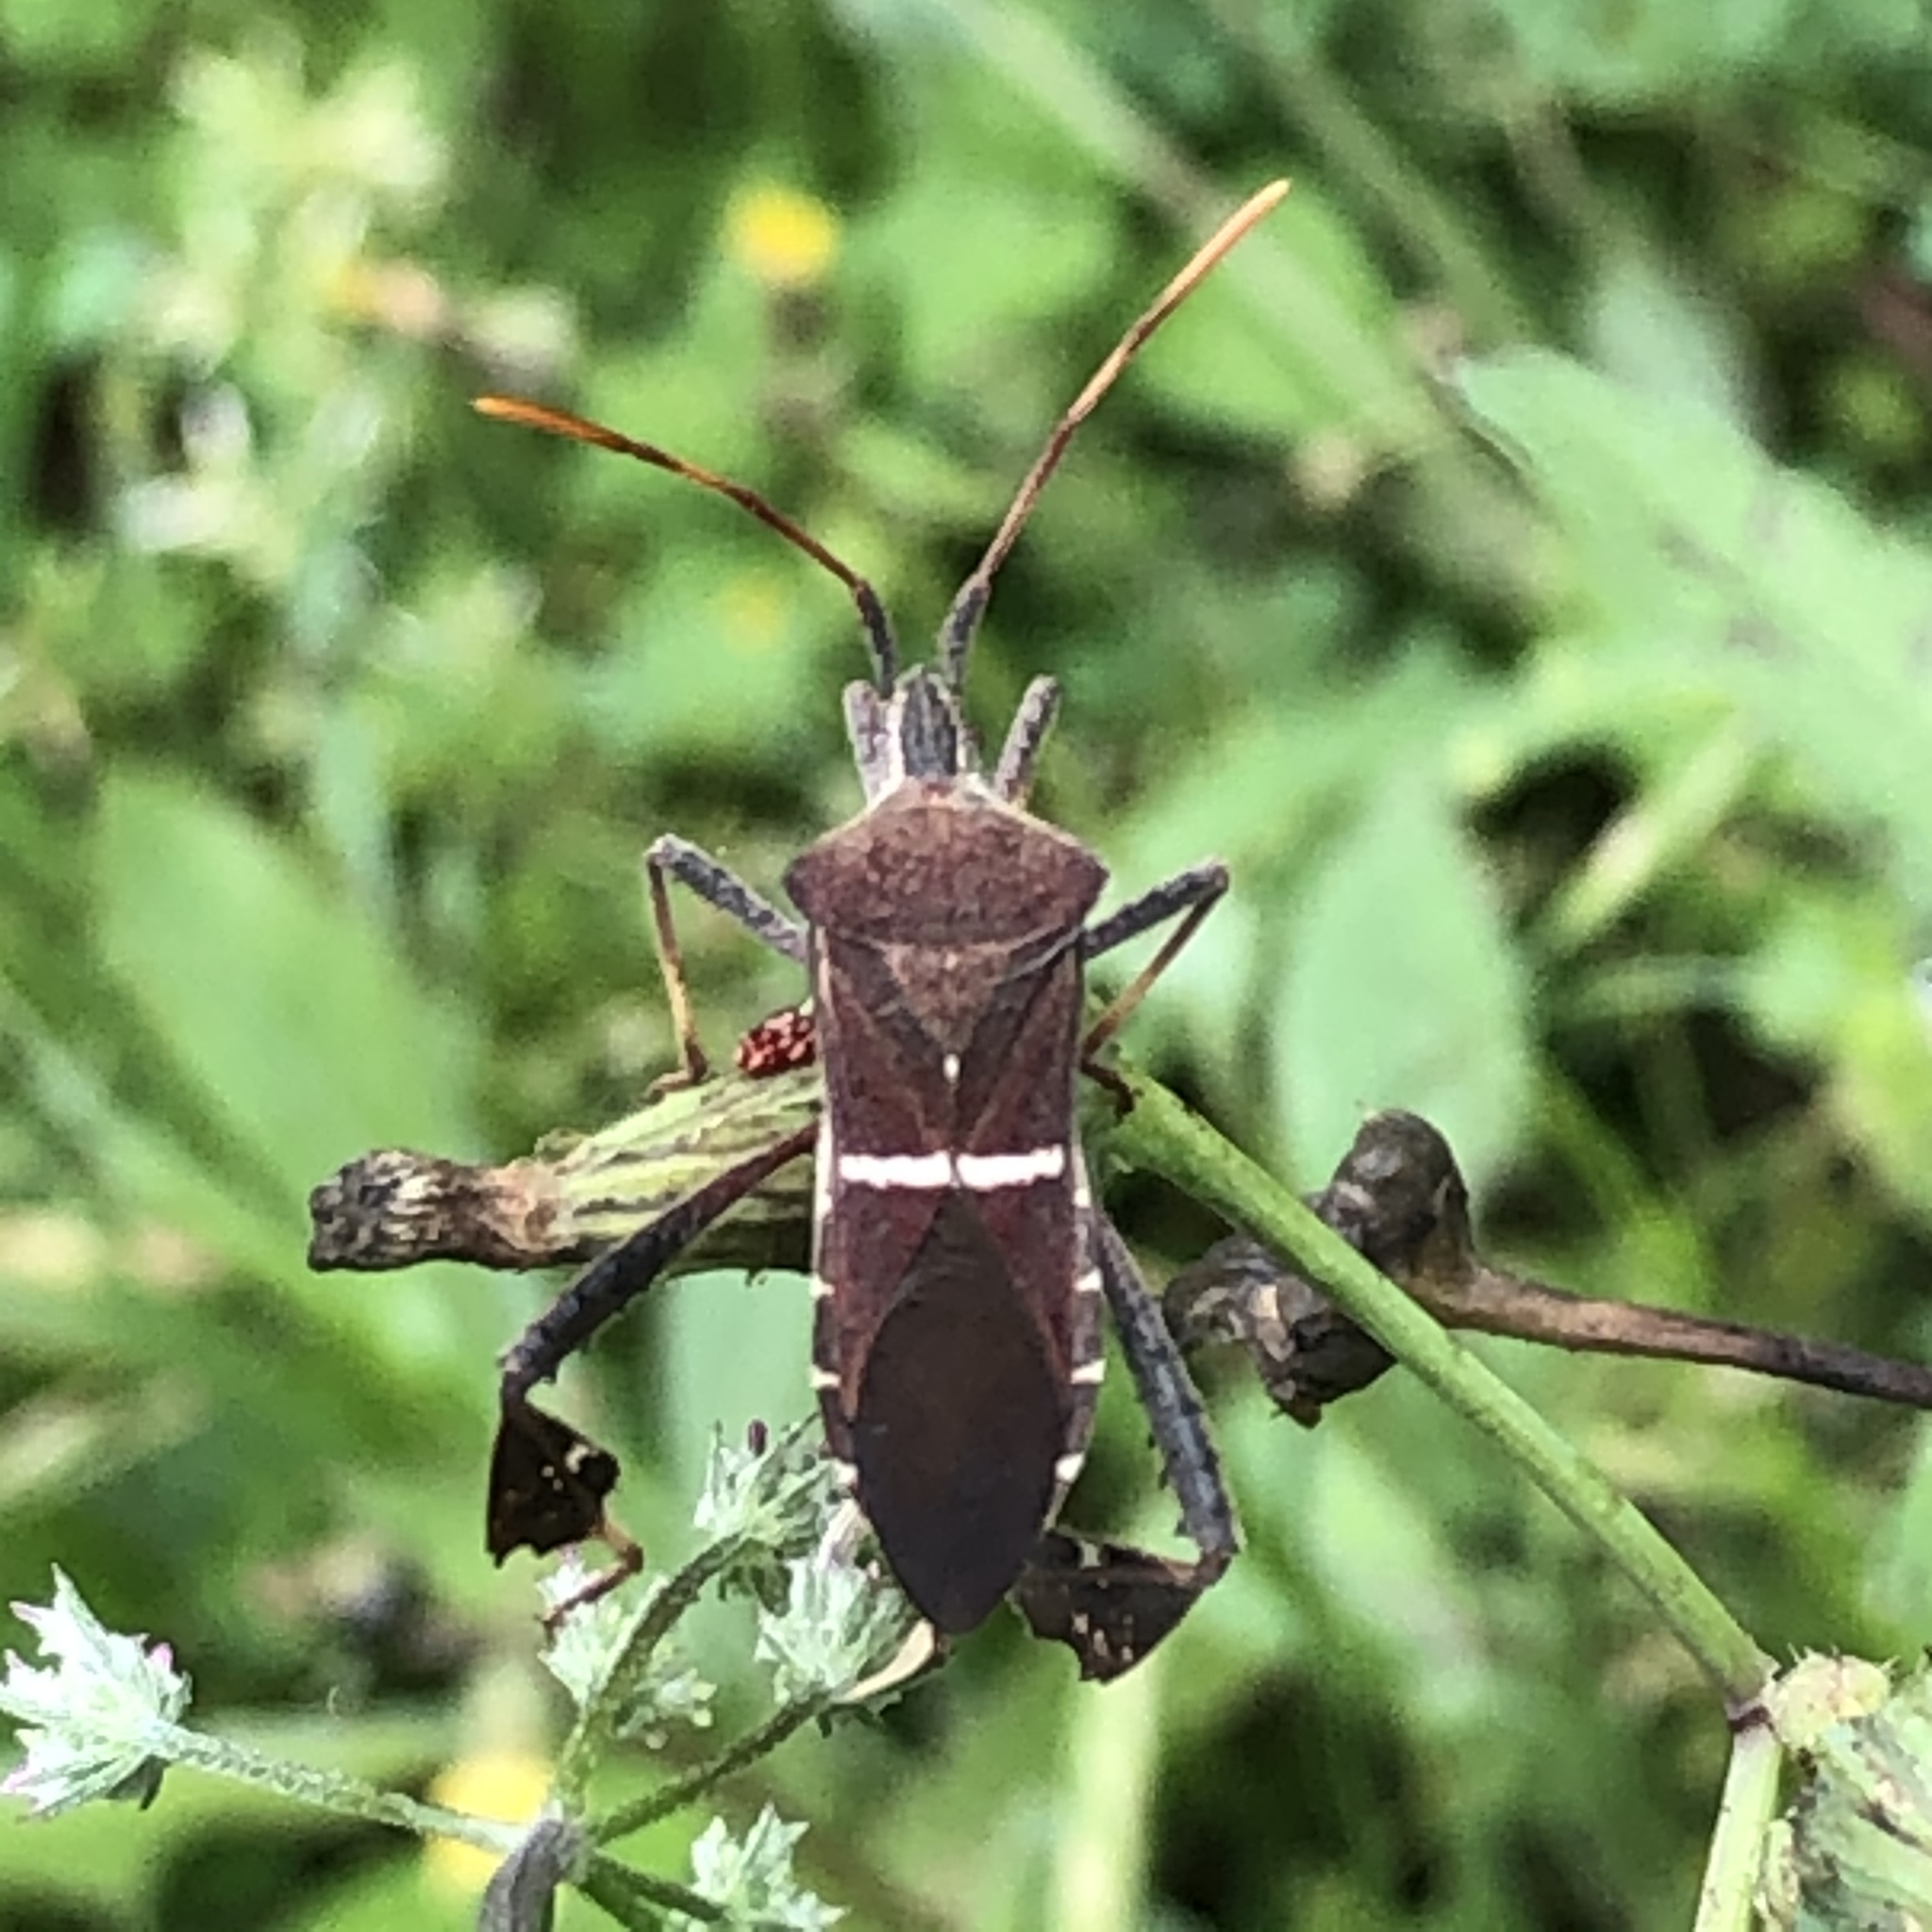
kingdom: Animalia
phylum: Arthropoda
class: Insecta
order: Hemiptera
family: Coreidae
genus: Leptoglossus
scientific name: Leptoglossus phyllopus
